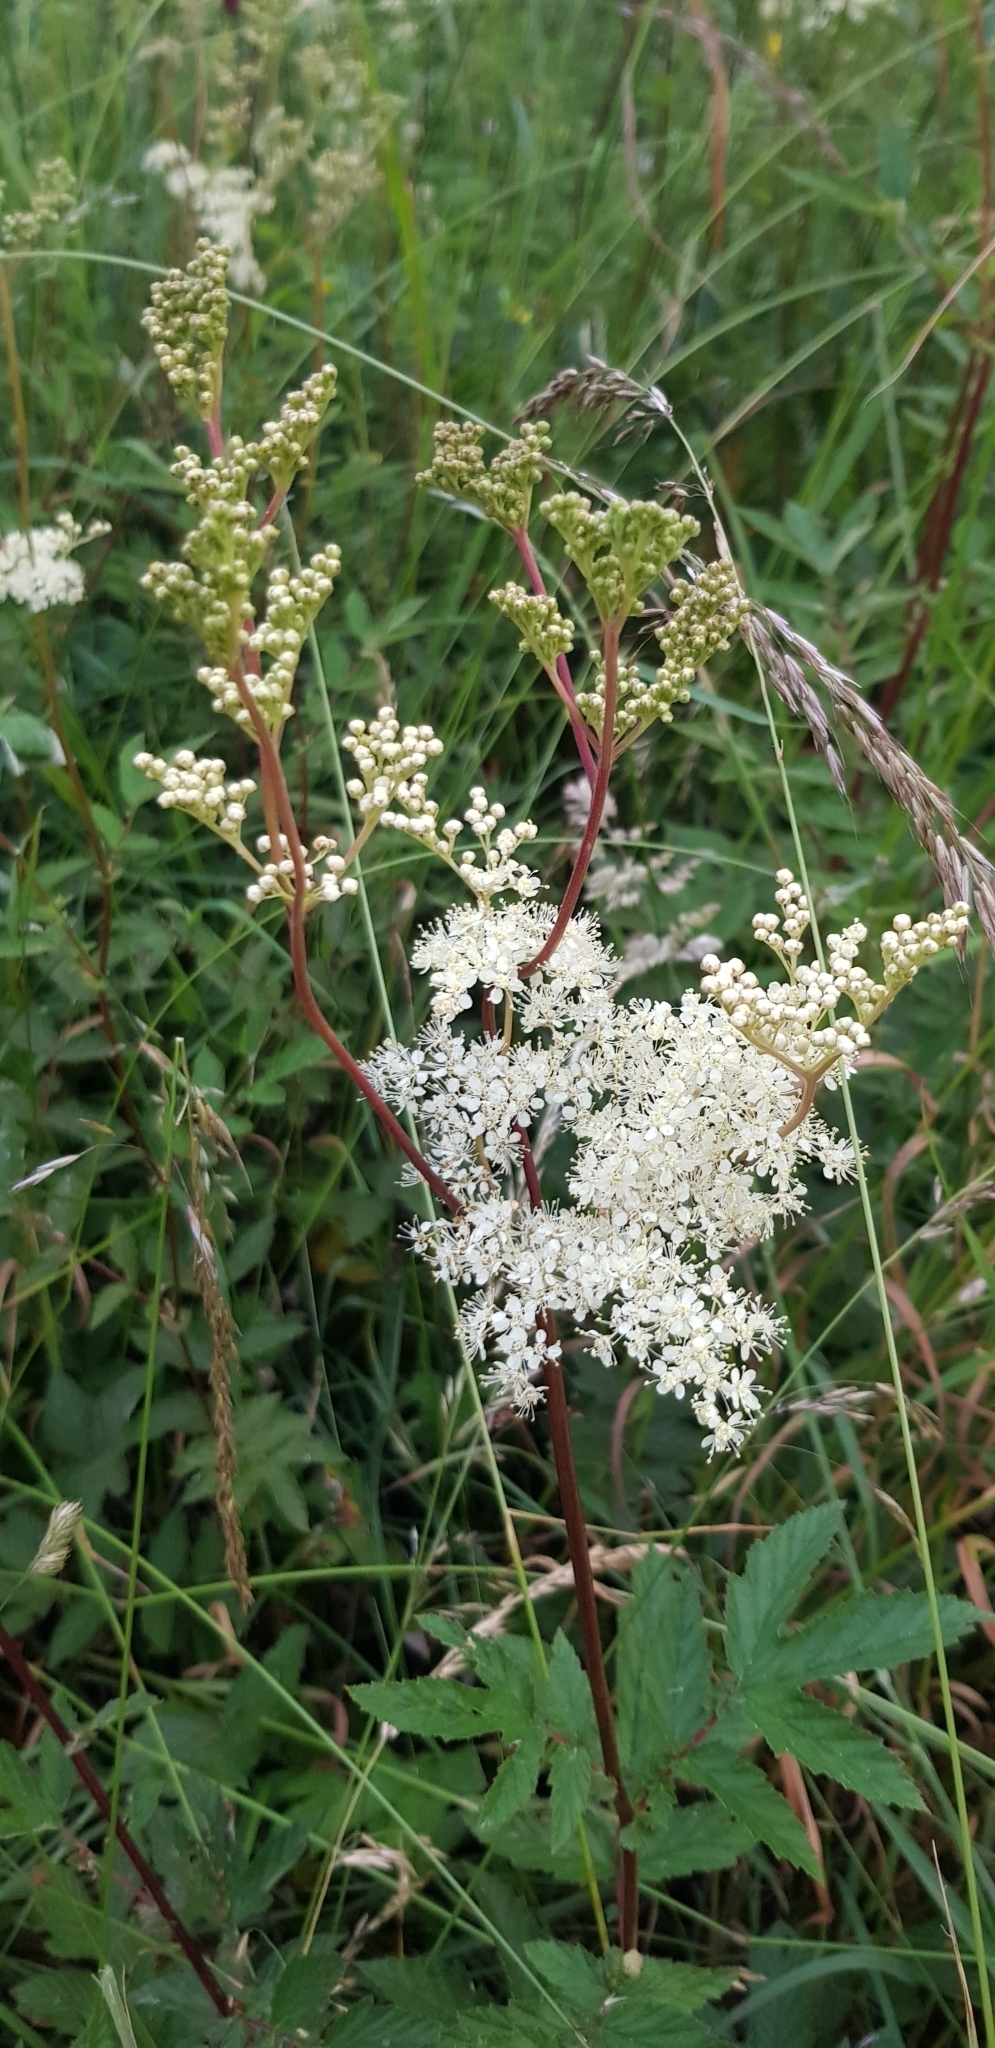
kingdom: Plantae
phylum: Tracheophyta
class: Magnoliopsida
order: Rosales
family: Rosaceae
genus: Filipendula
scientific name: Filipendula ulmaria
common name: Meadowsweet
